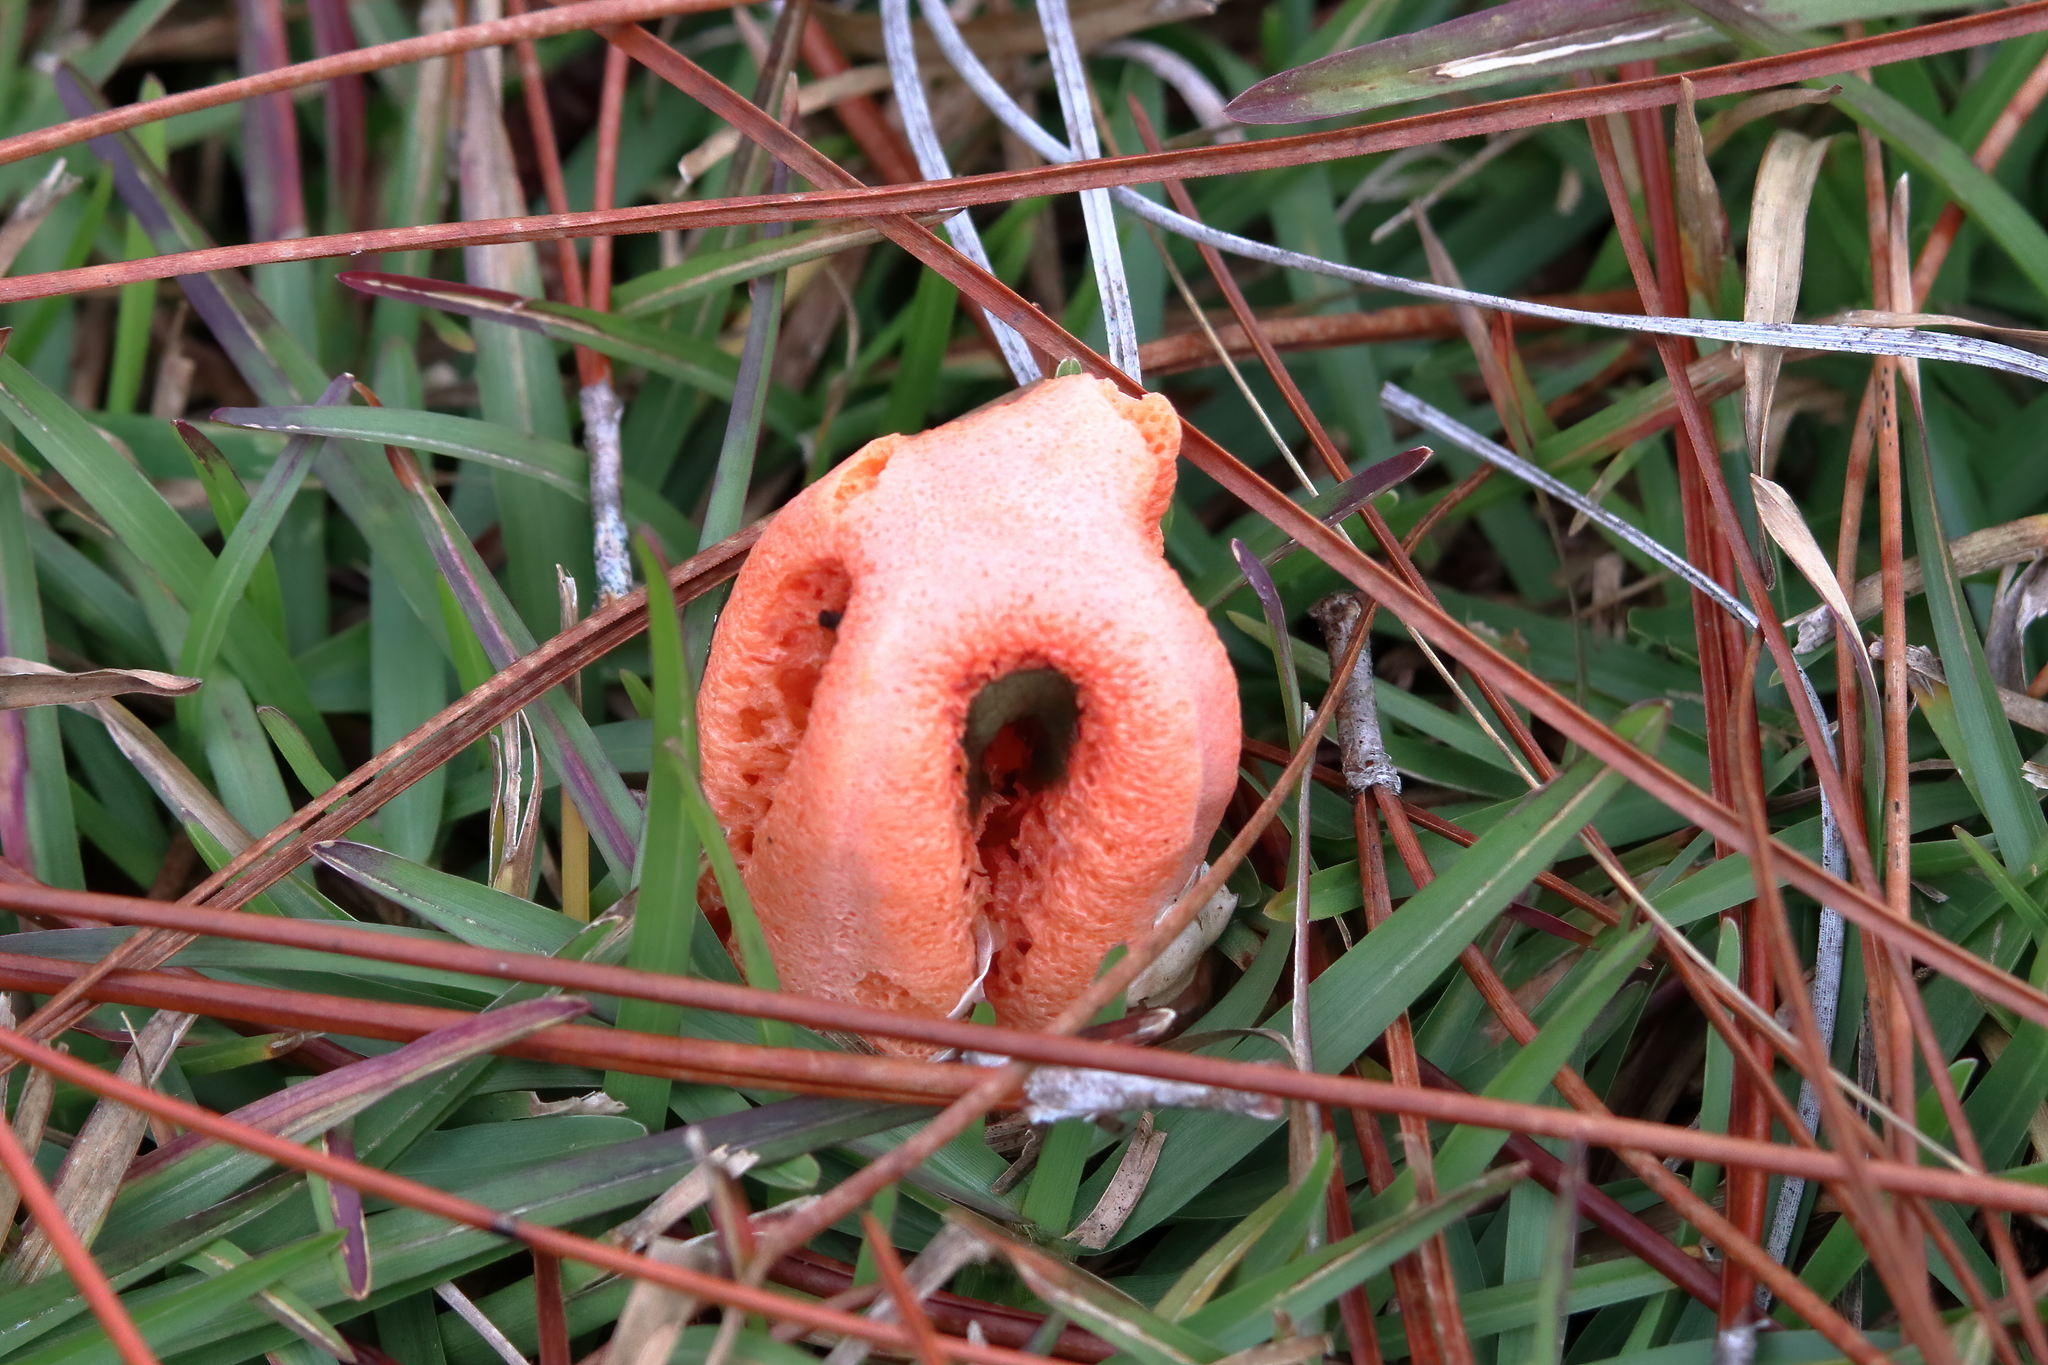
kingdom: Fungi
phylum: Basidiomycota
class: Agaricomycetes
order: Phallales
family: Phallaceae
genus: Clathrus
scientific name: Clathrus columnatus
